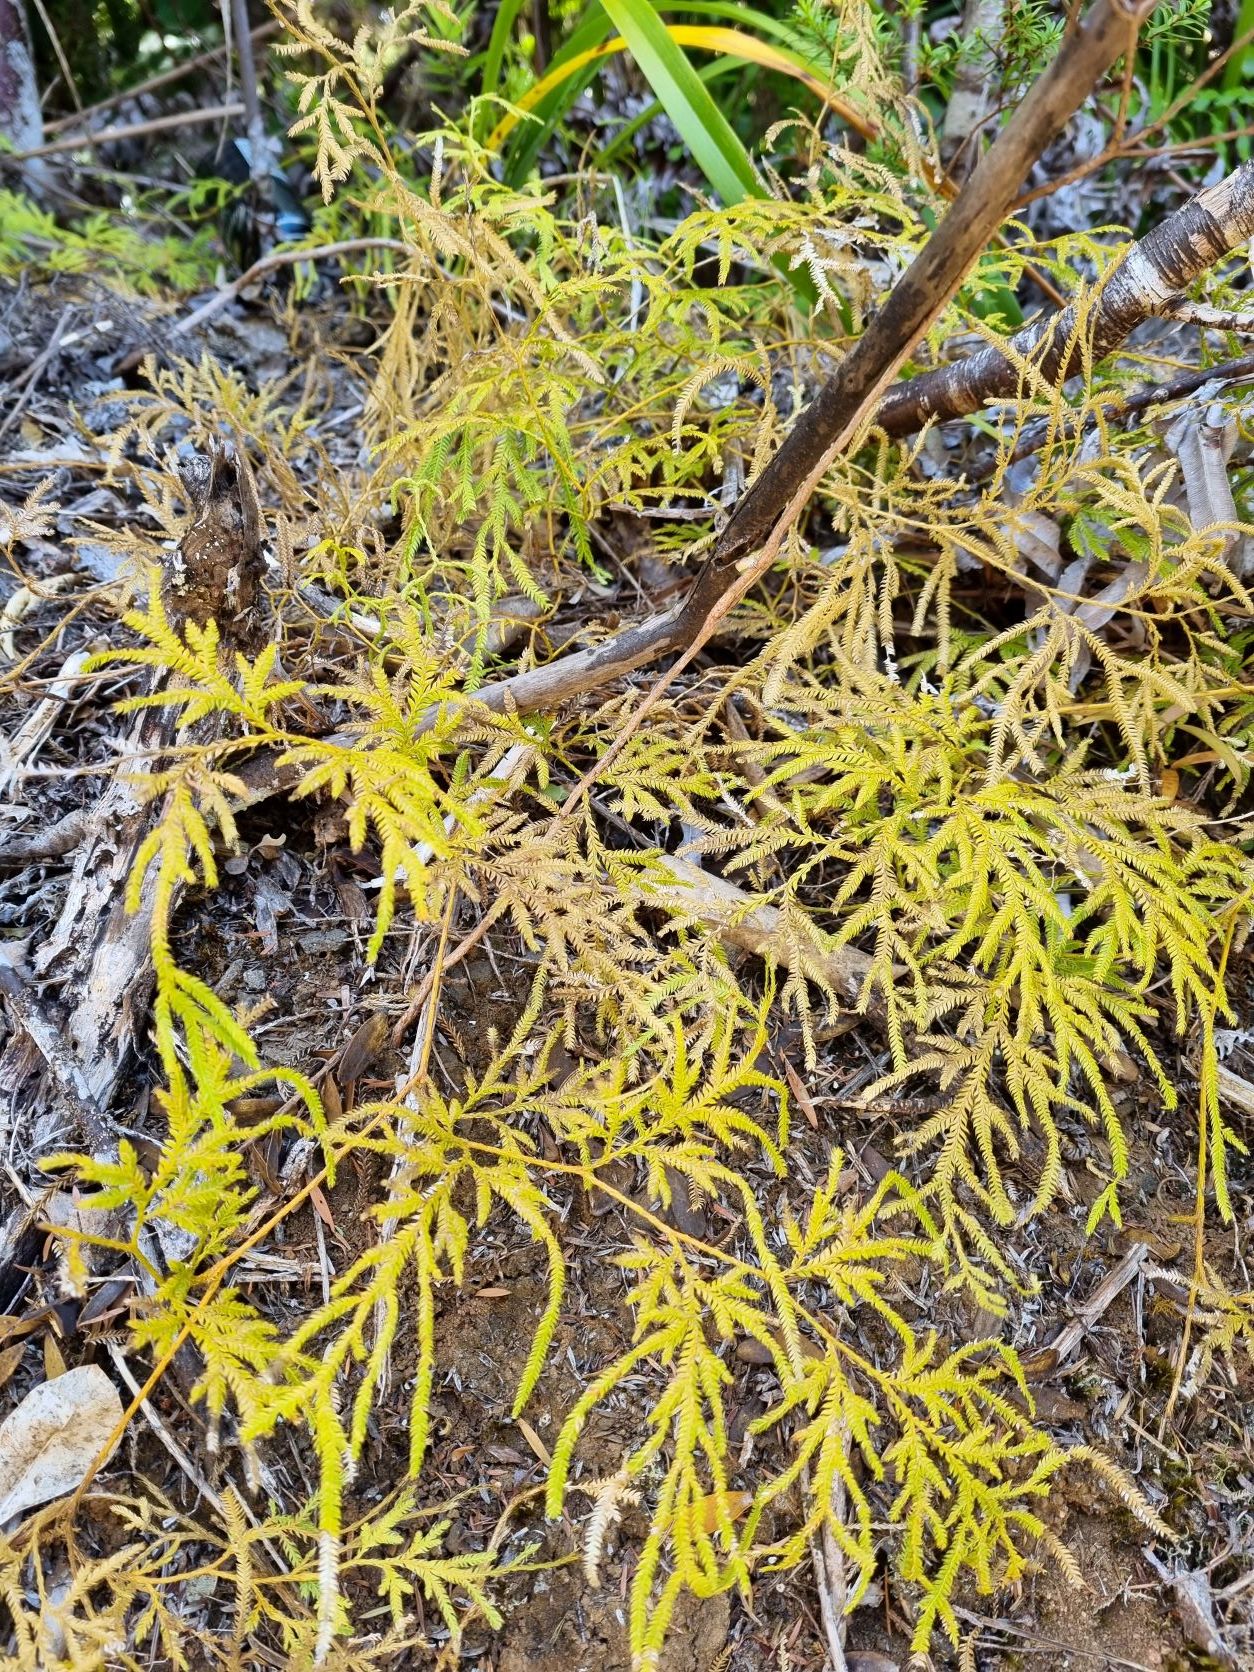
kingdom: Plantae
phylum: Tracheophyta
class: Lycopodiopsida
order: Lycopodiales
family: Lycopodiaceae
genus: Lycopodium
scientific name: Lycopodium volubile
